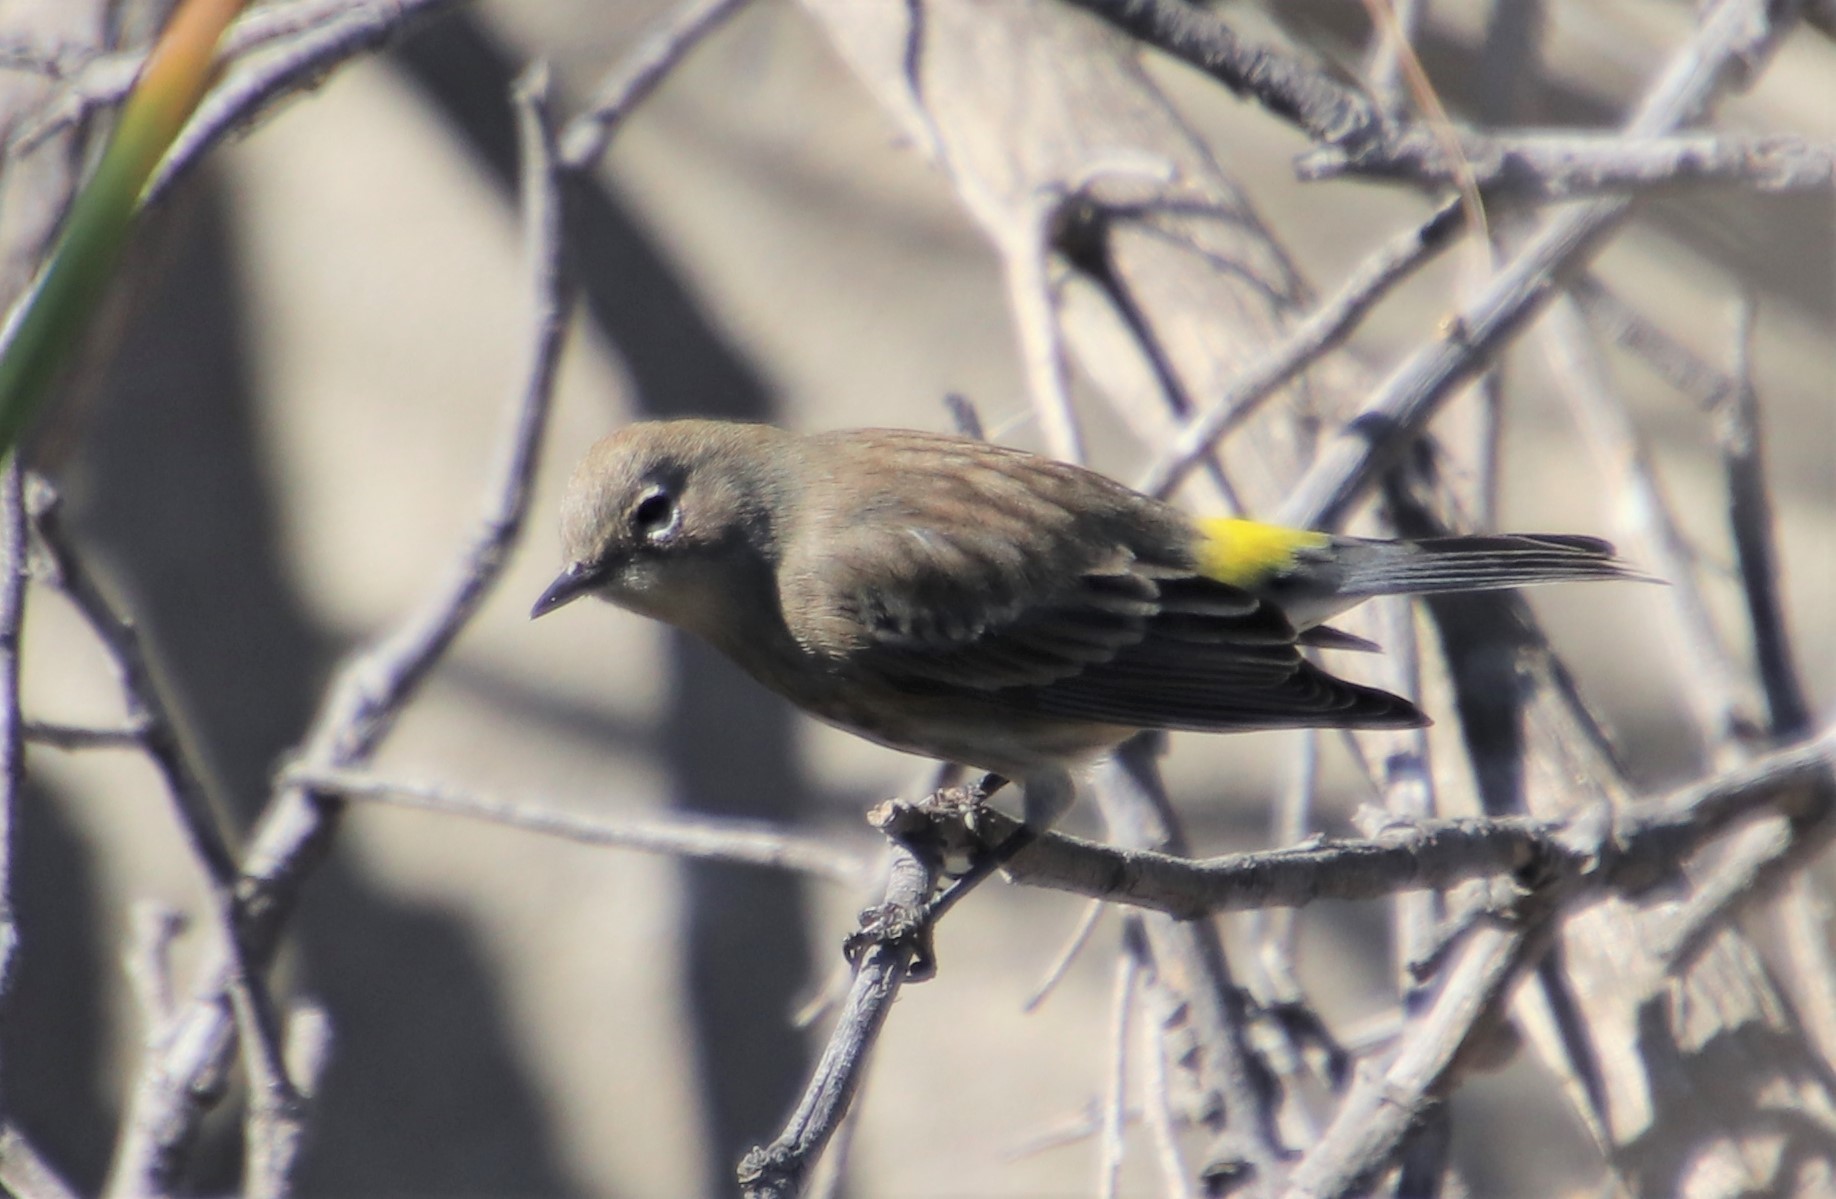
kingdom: Animalia
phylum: Chordata
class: Aves
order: Passeriformes
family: Parulidae
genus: Setophaga
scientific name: Setophaga coronata
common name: Myrtle warbler
